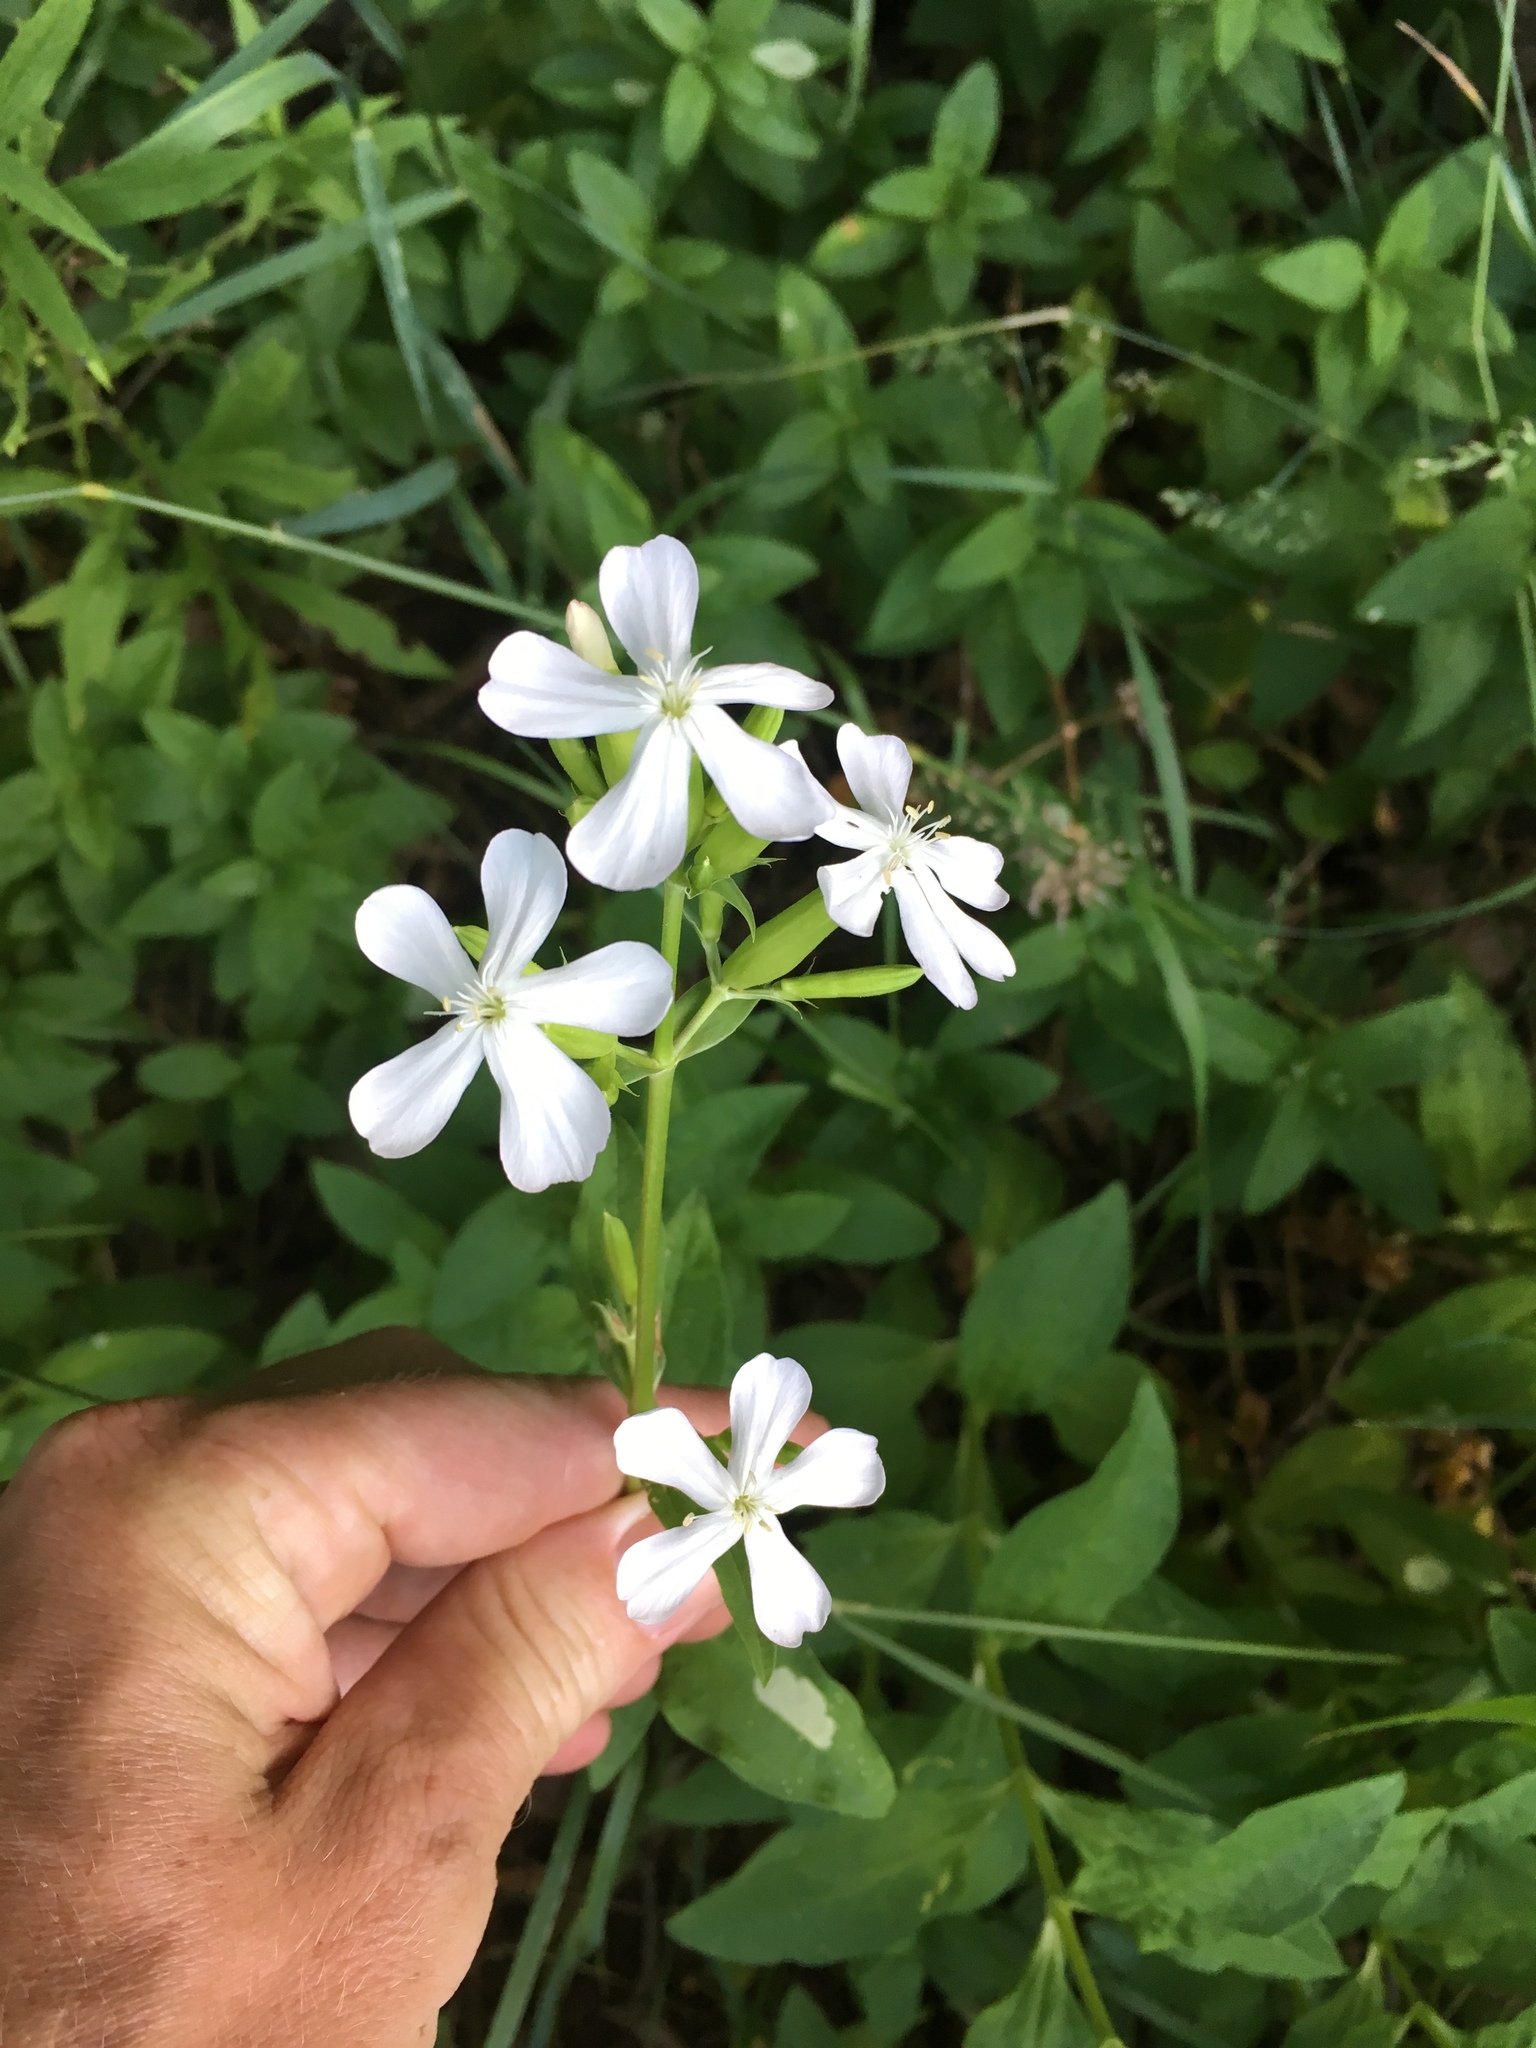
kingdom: Plantae
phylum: Tracheophyta
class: Magnoliopsida
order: Caryophyllales
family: Caryophyllaceae
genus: Saponaria
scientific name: Saponaria officinalis
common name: Soapwort
